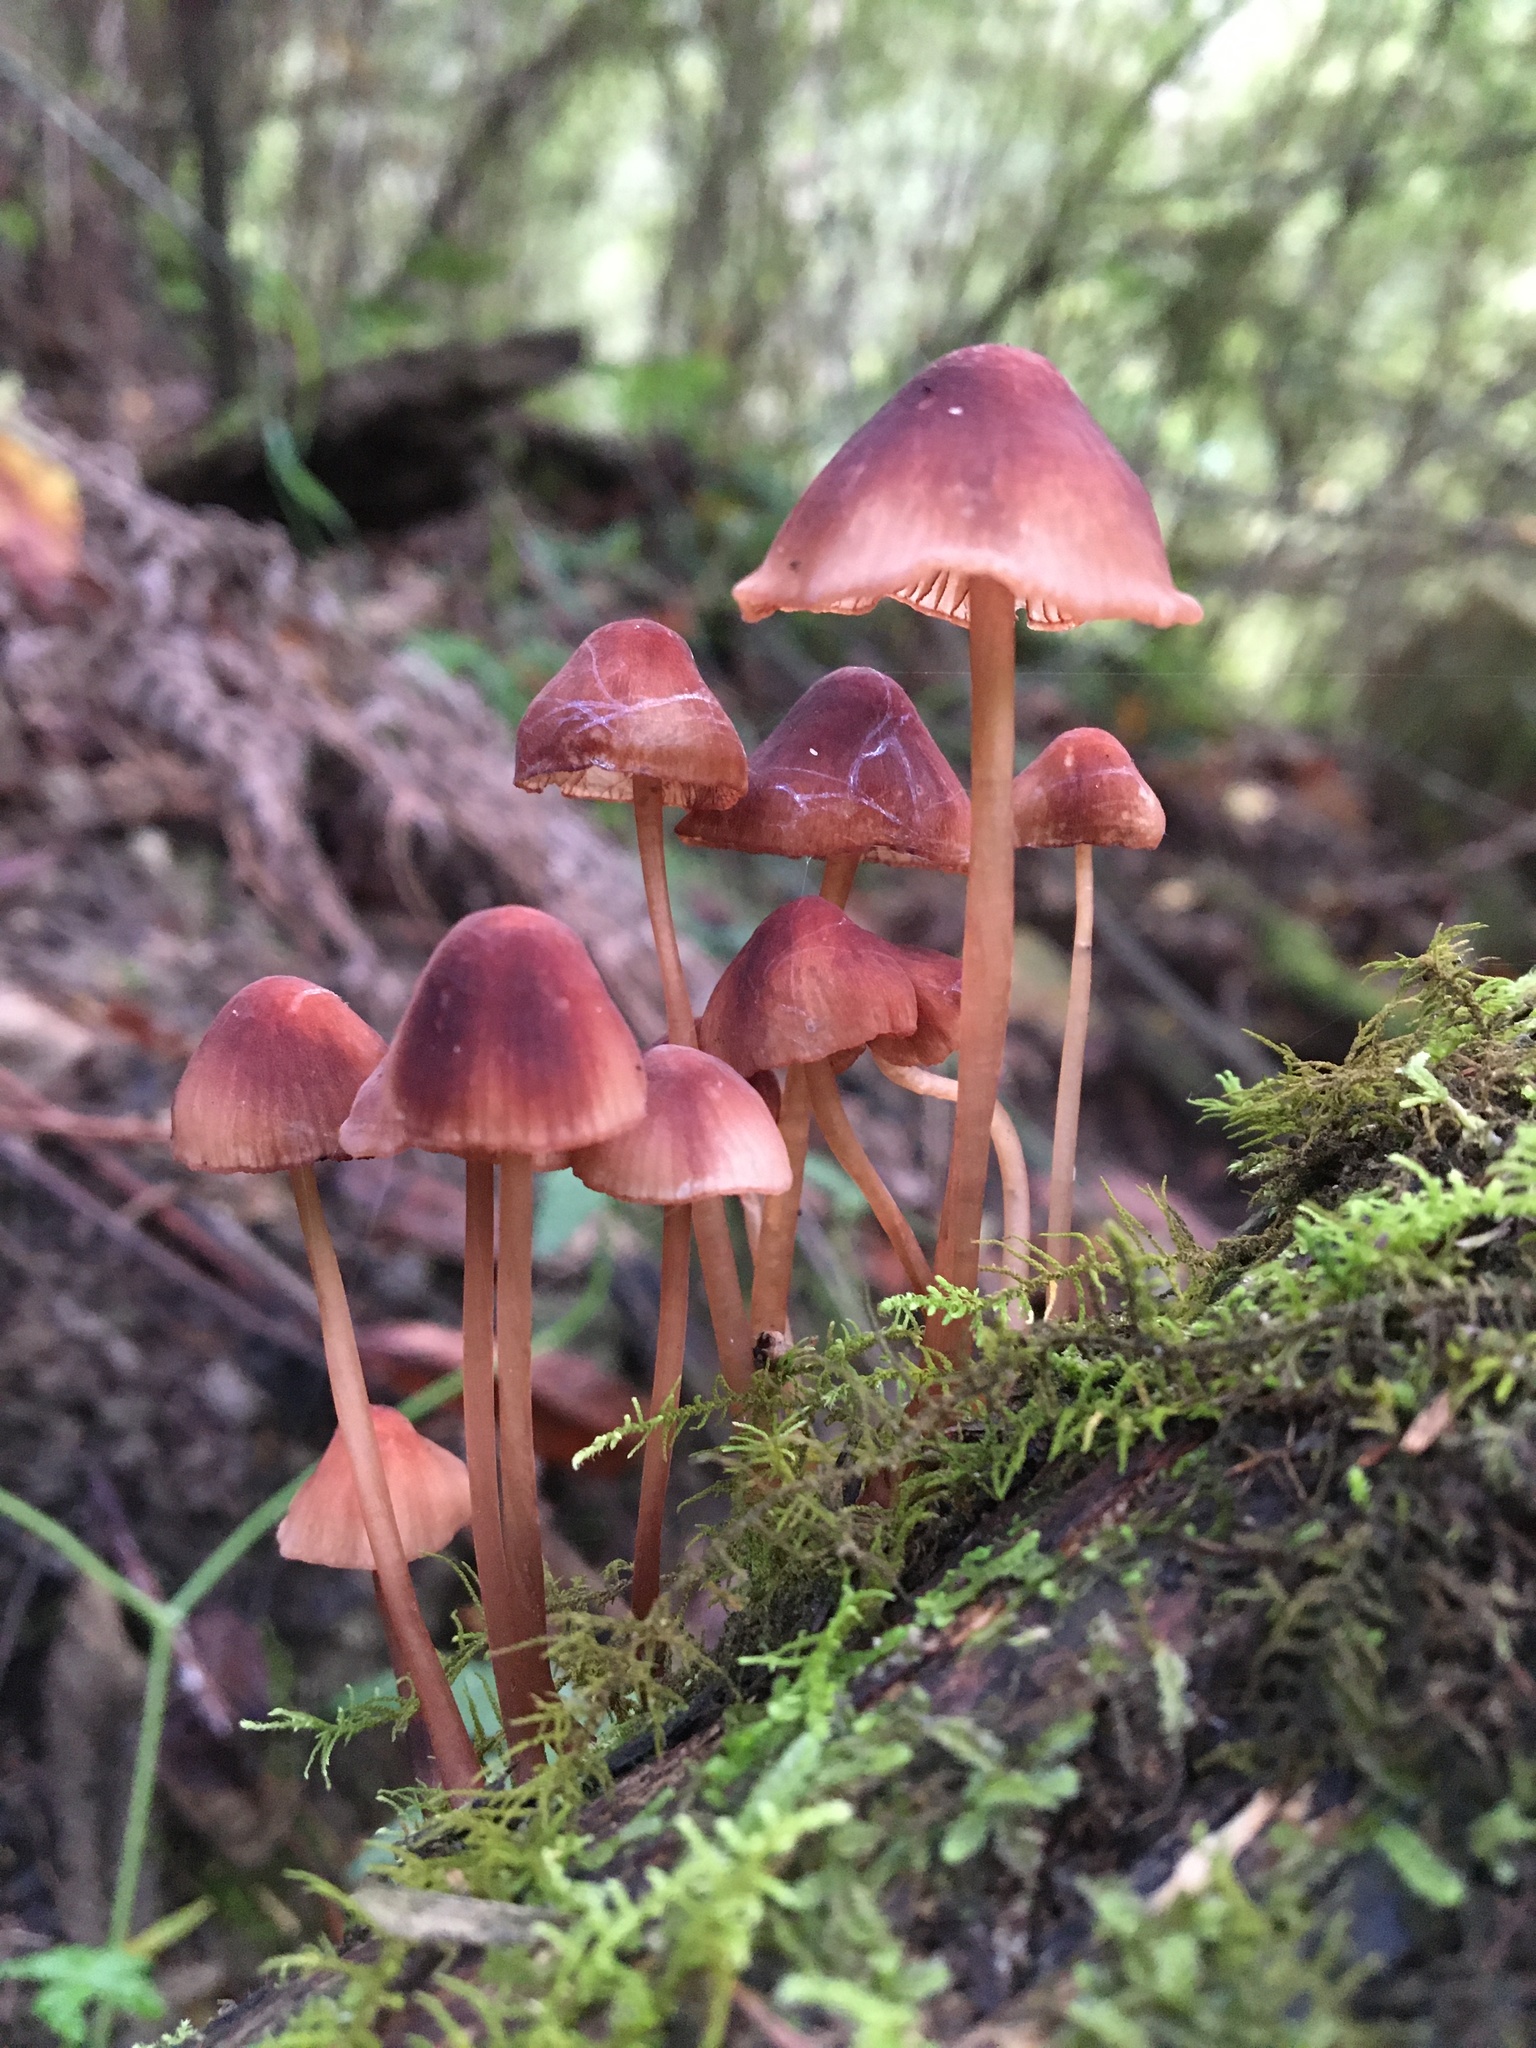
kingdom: Fungi
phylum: Basidiomycota
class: Agaricomycetes
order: Agaricales
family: Mycenaceae
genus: Mycena
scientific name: Mycena kuurkacea
